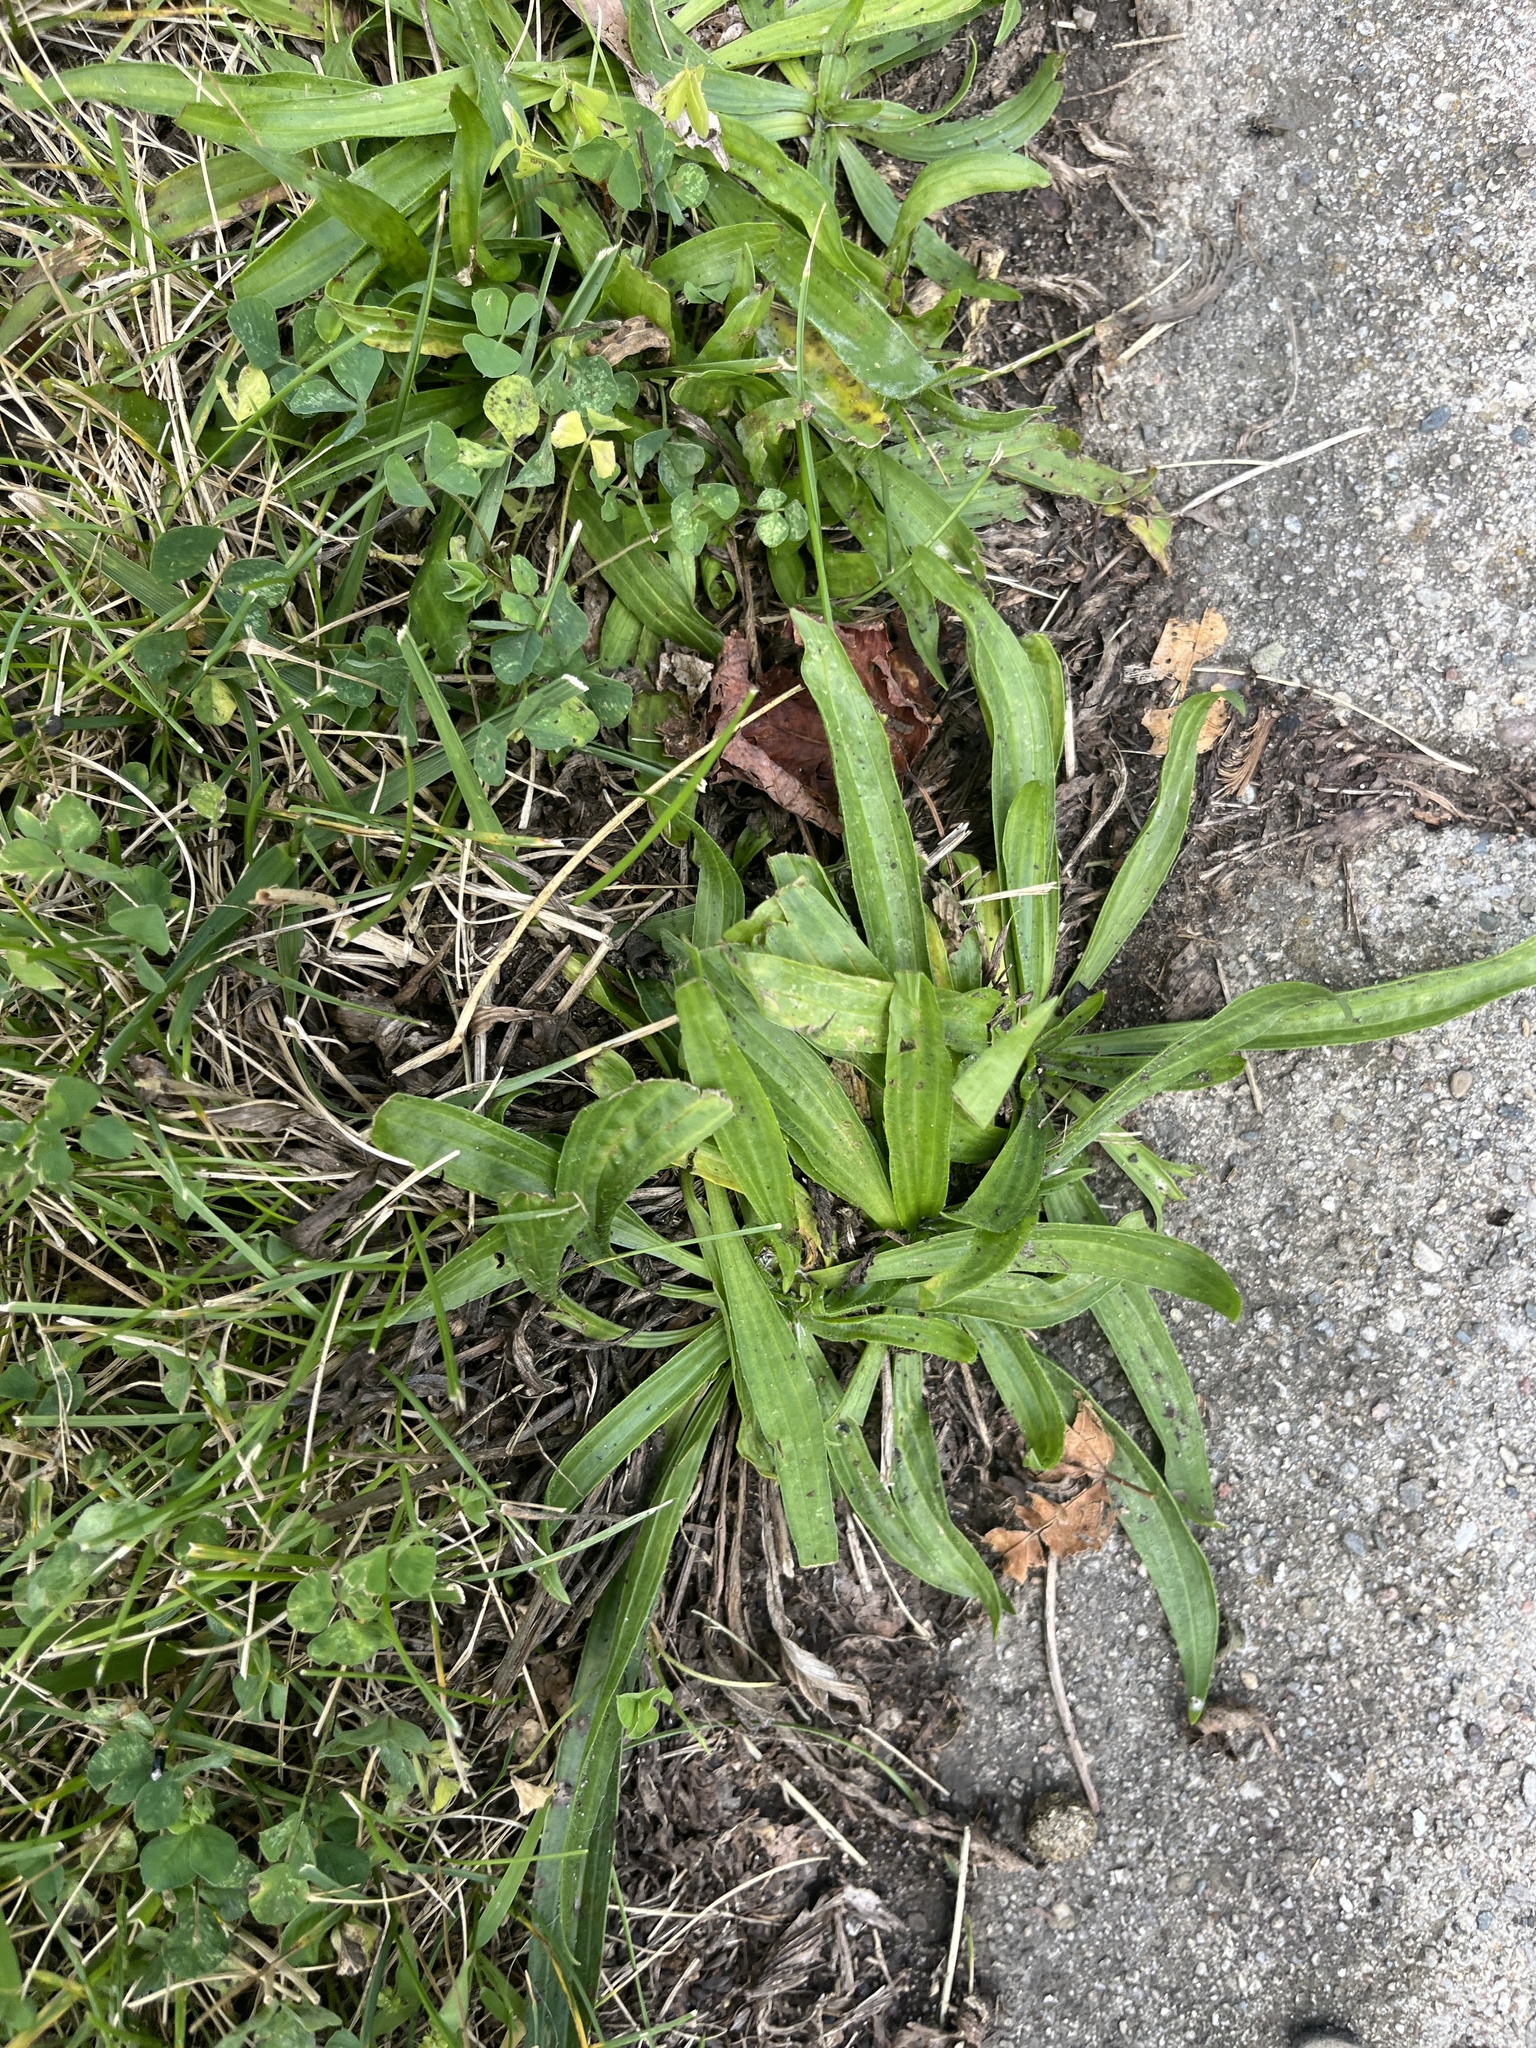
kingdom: Plantae
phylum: Tracheophyta
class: Magnoliopsida
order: Lamiales
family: Plantaginaceae
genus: Plantago
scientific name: Plantago lanceolata
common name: Ribwort plantain
